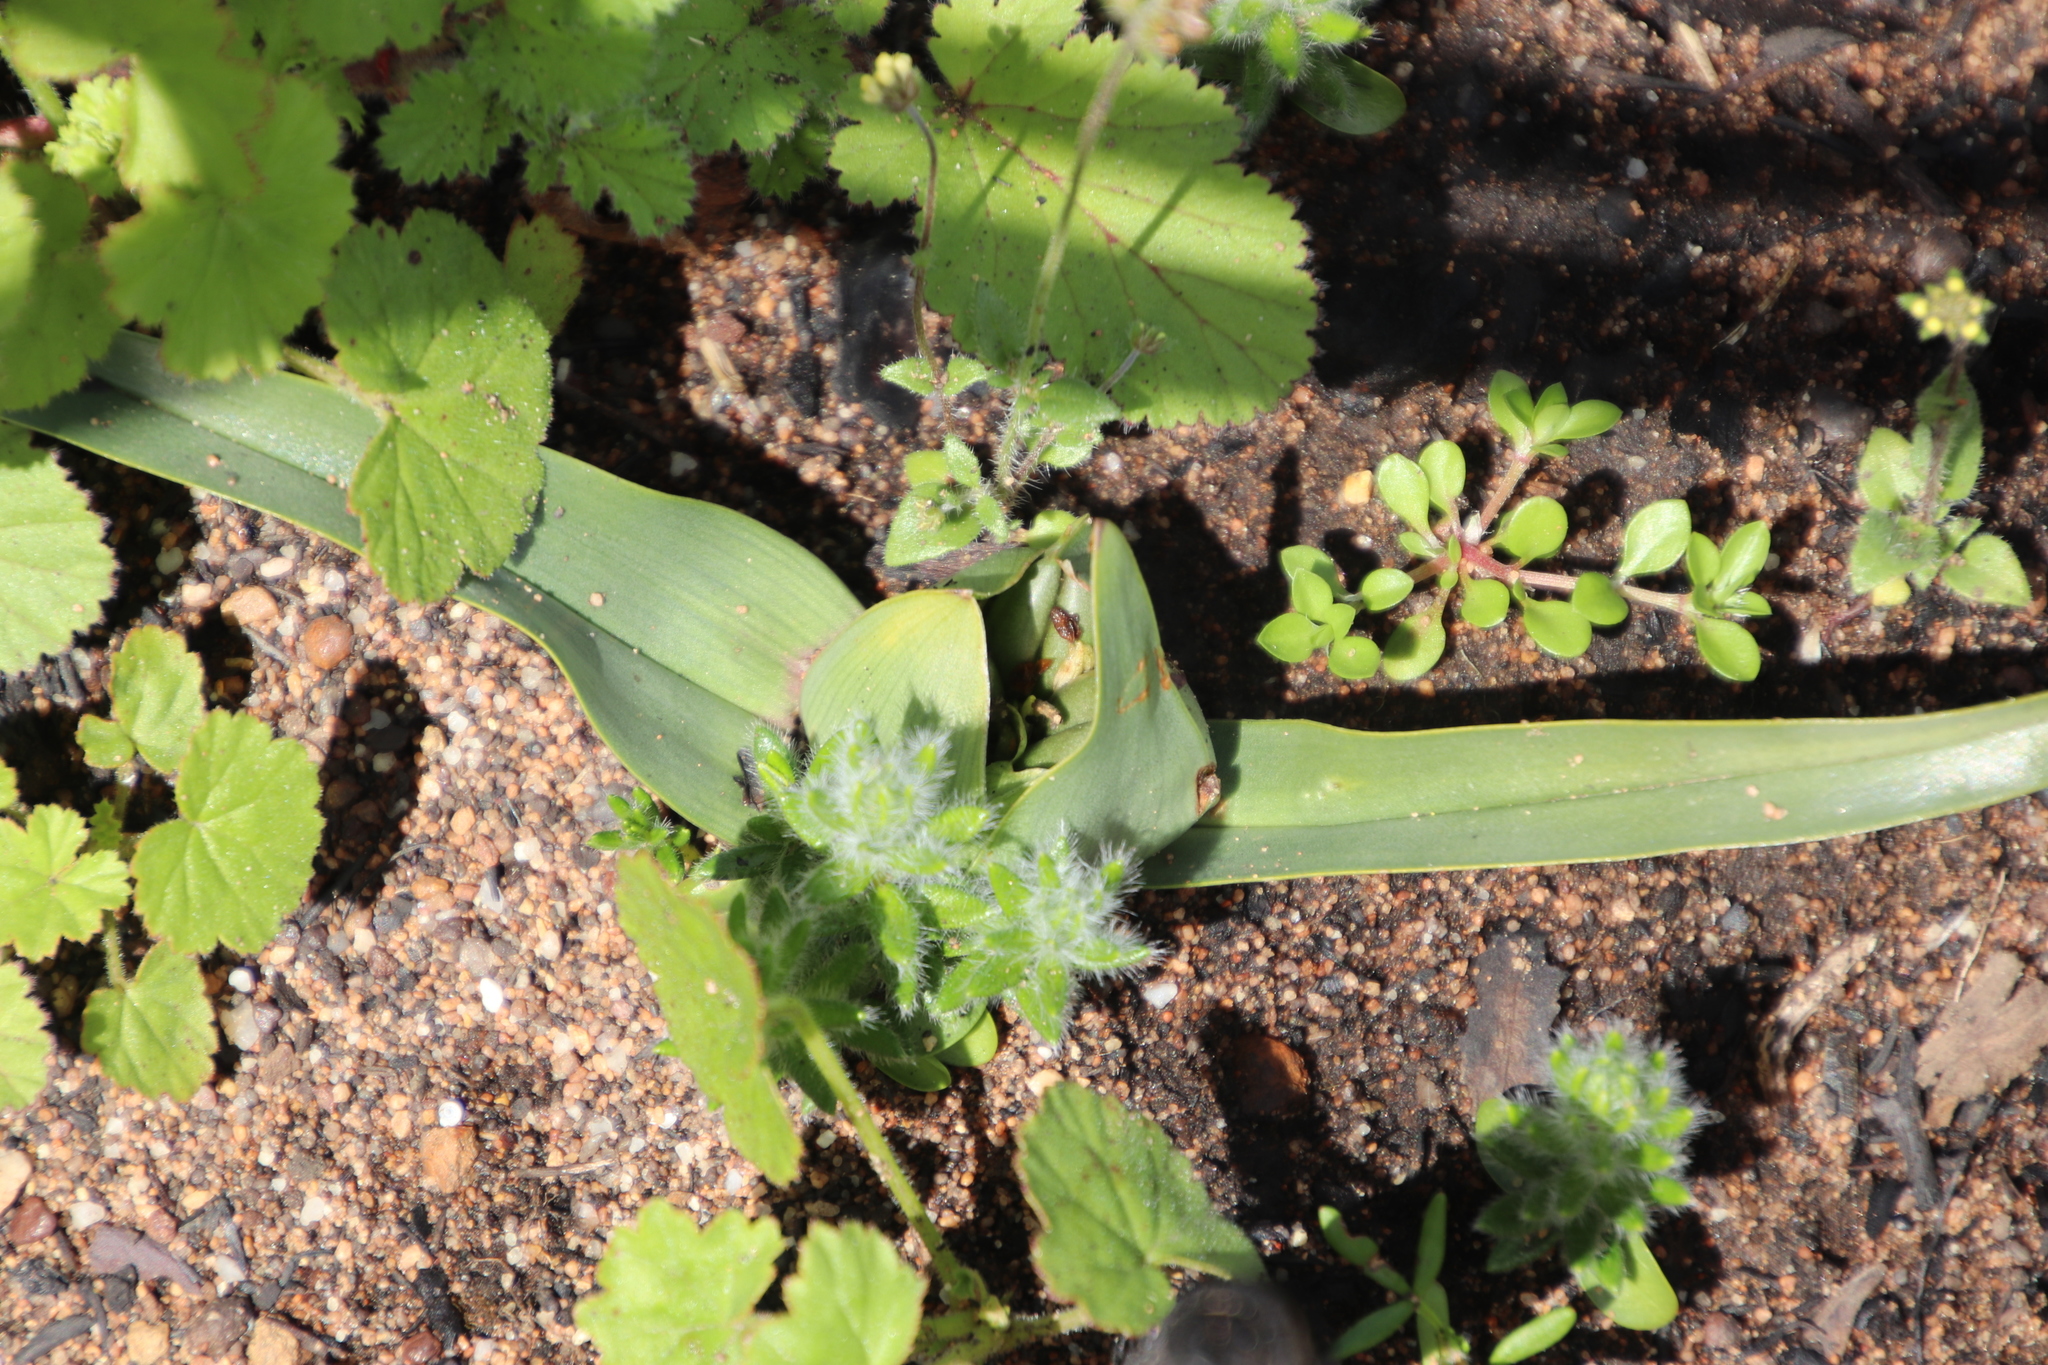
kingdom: Plantae
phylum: Tracheophyta
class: Liliopsida
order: Liliales
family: Colchicaceae
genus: Colchicum
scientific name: Colchicum eucomoides
